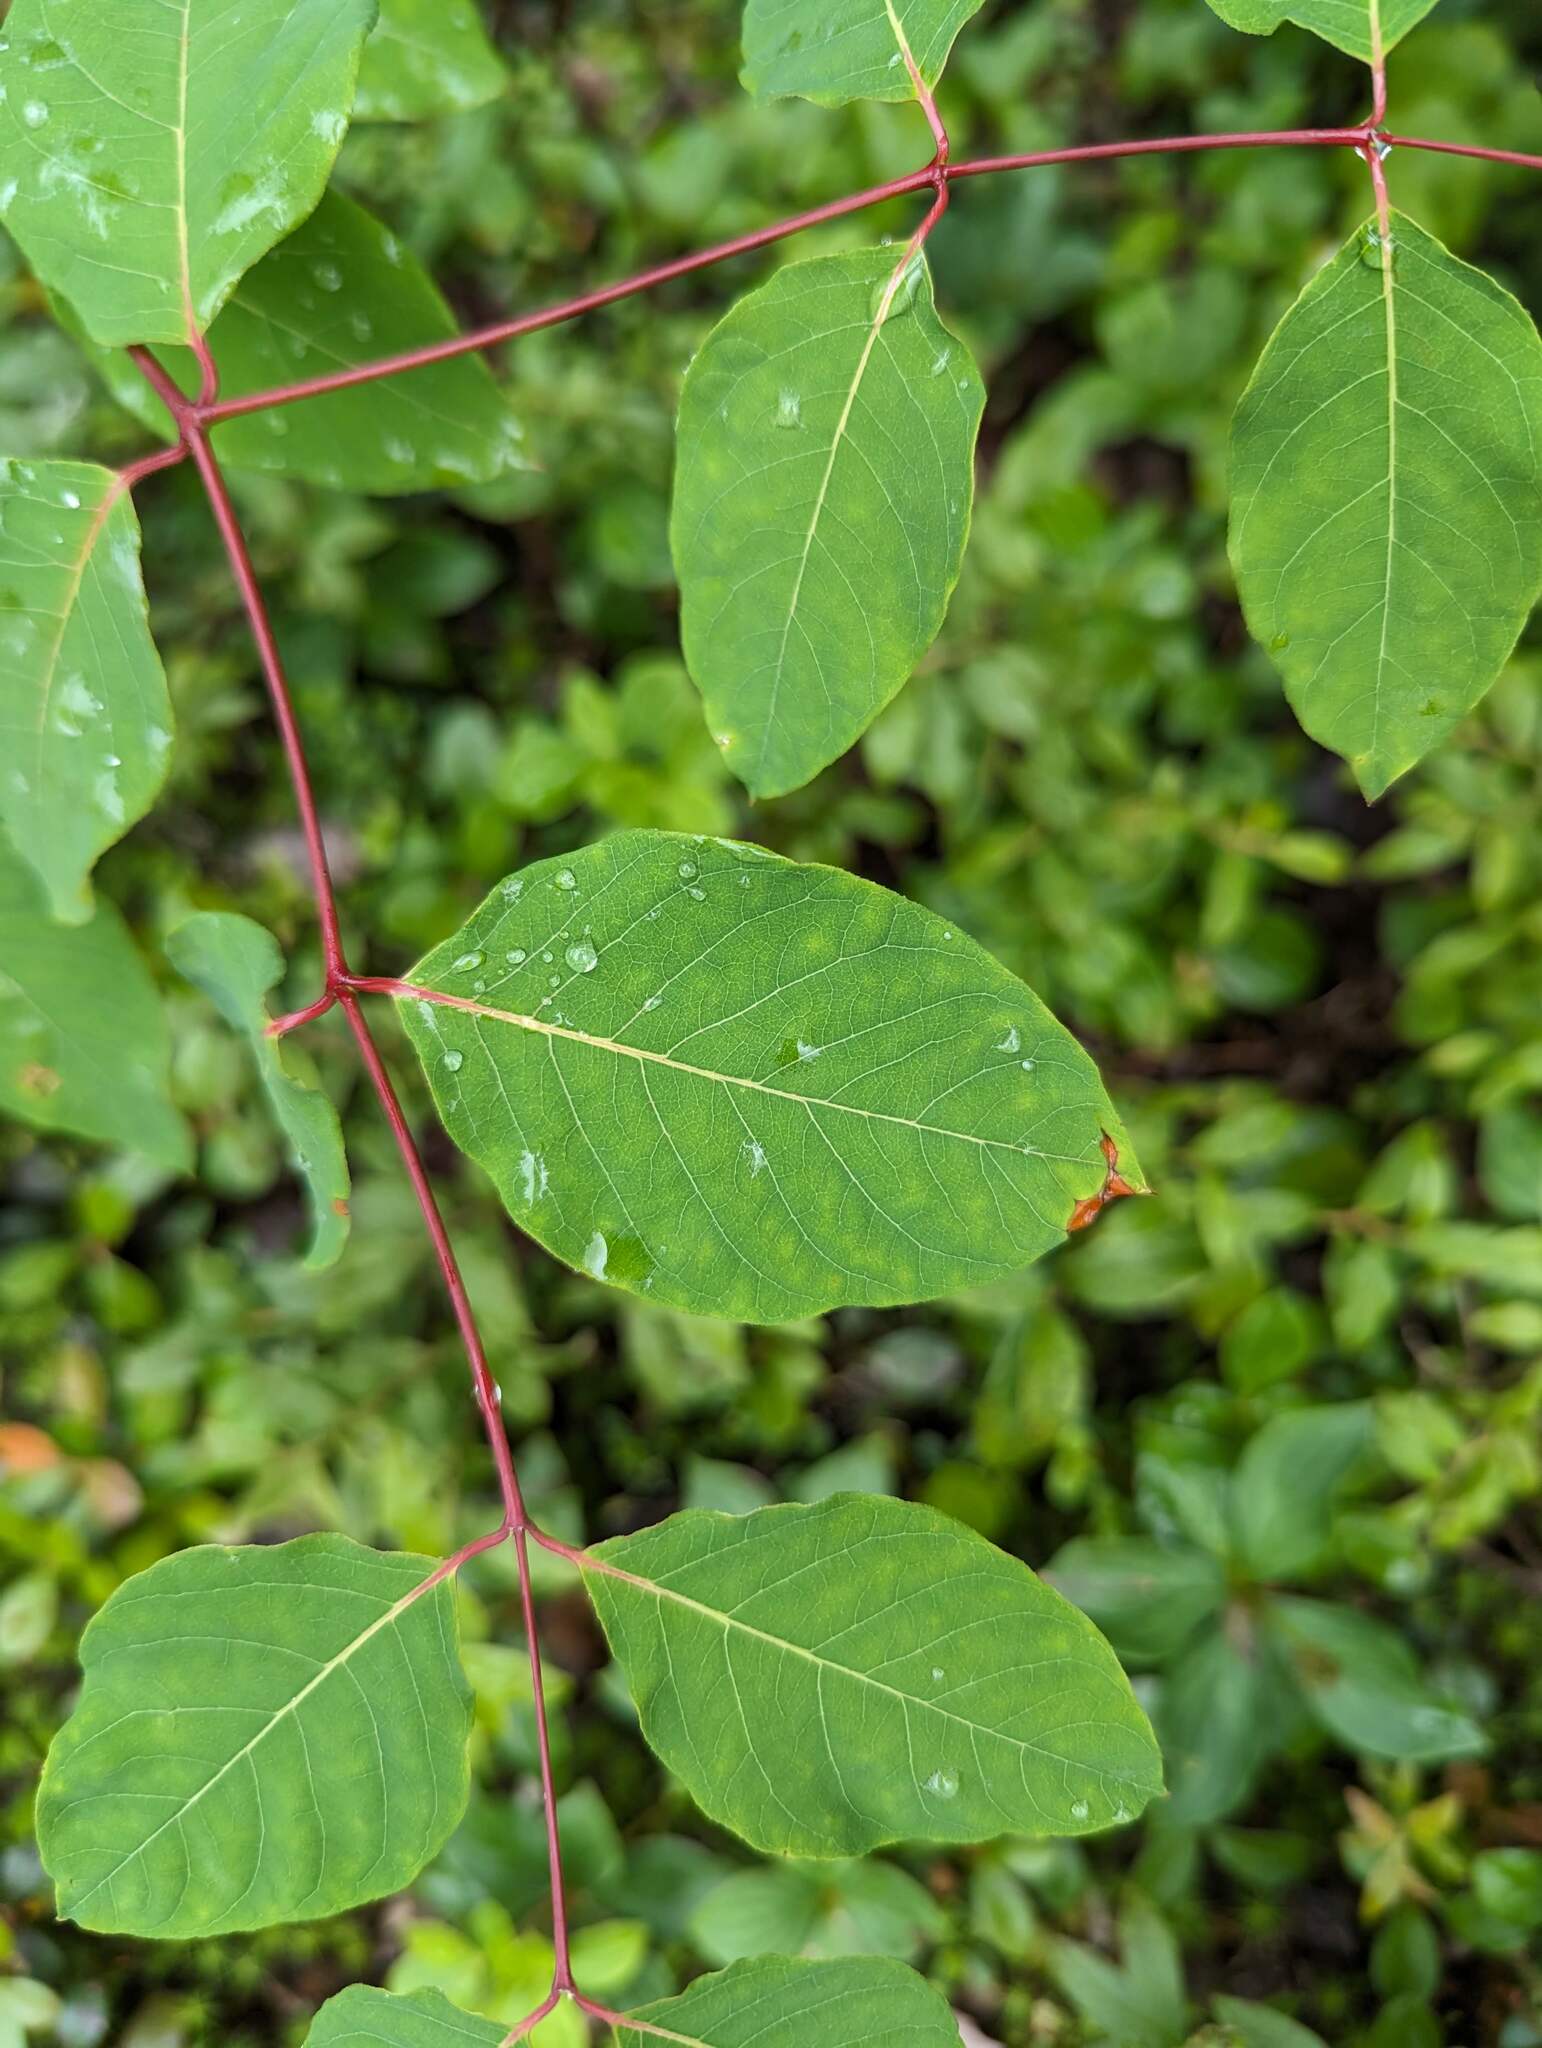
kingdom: Plantae
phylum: Tracheophyta
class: Magnoliopsida
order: Gentianales
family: Apocynaceae
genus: Apocynum
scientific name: Apocynum androsaemifolium
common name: Spreading dogbane
